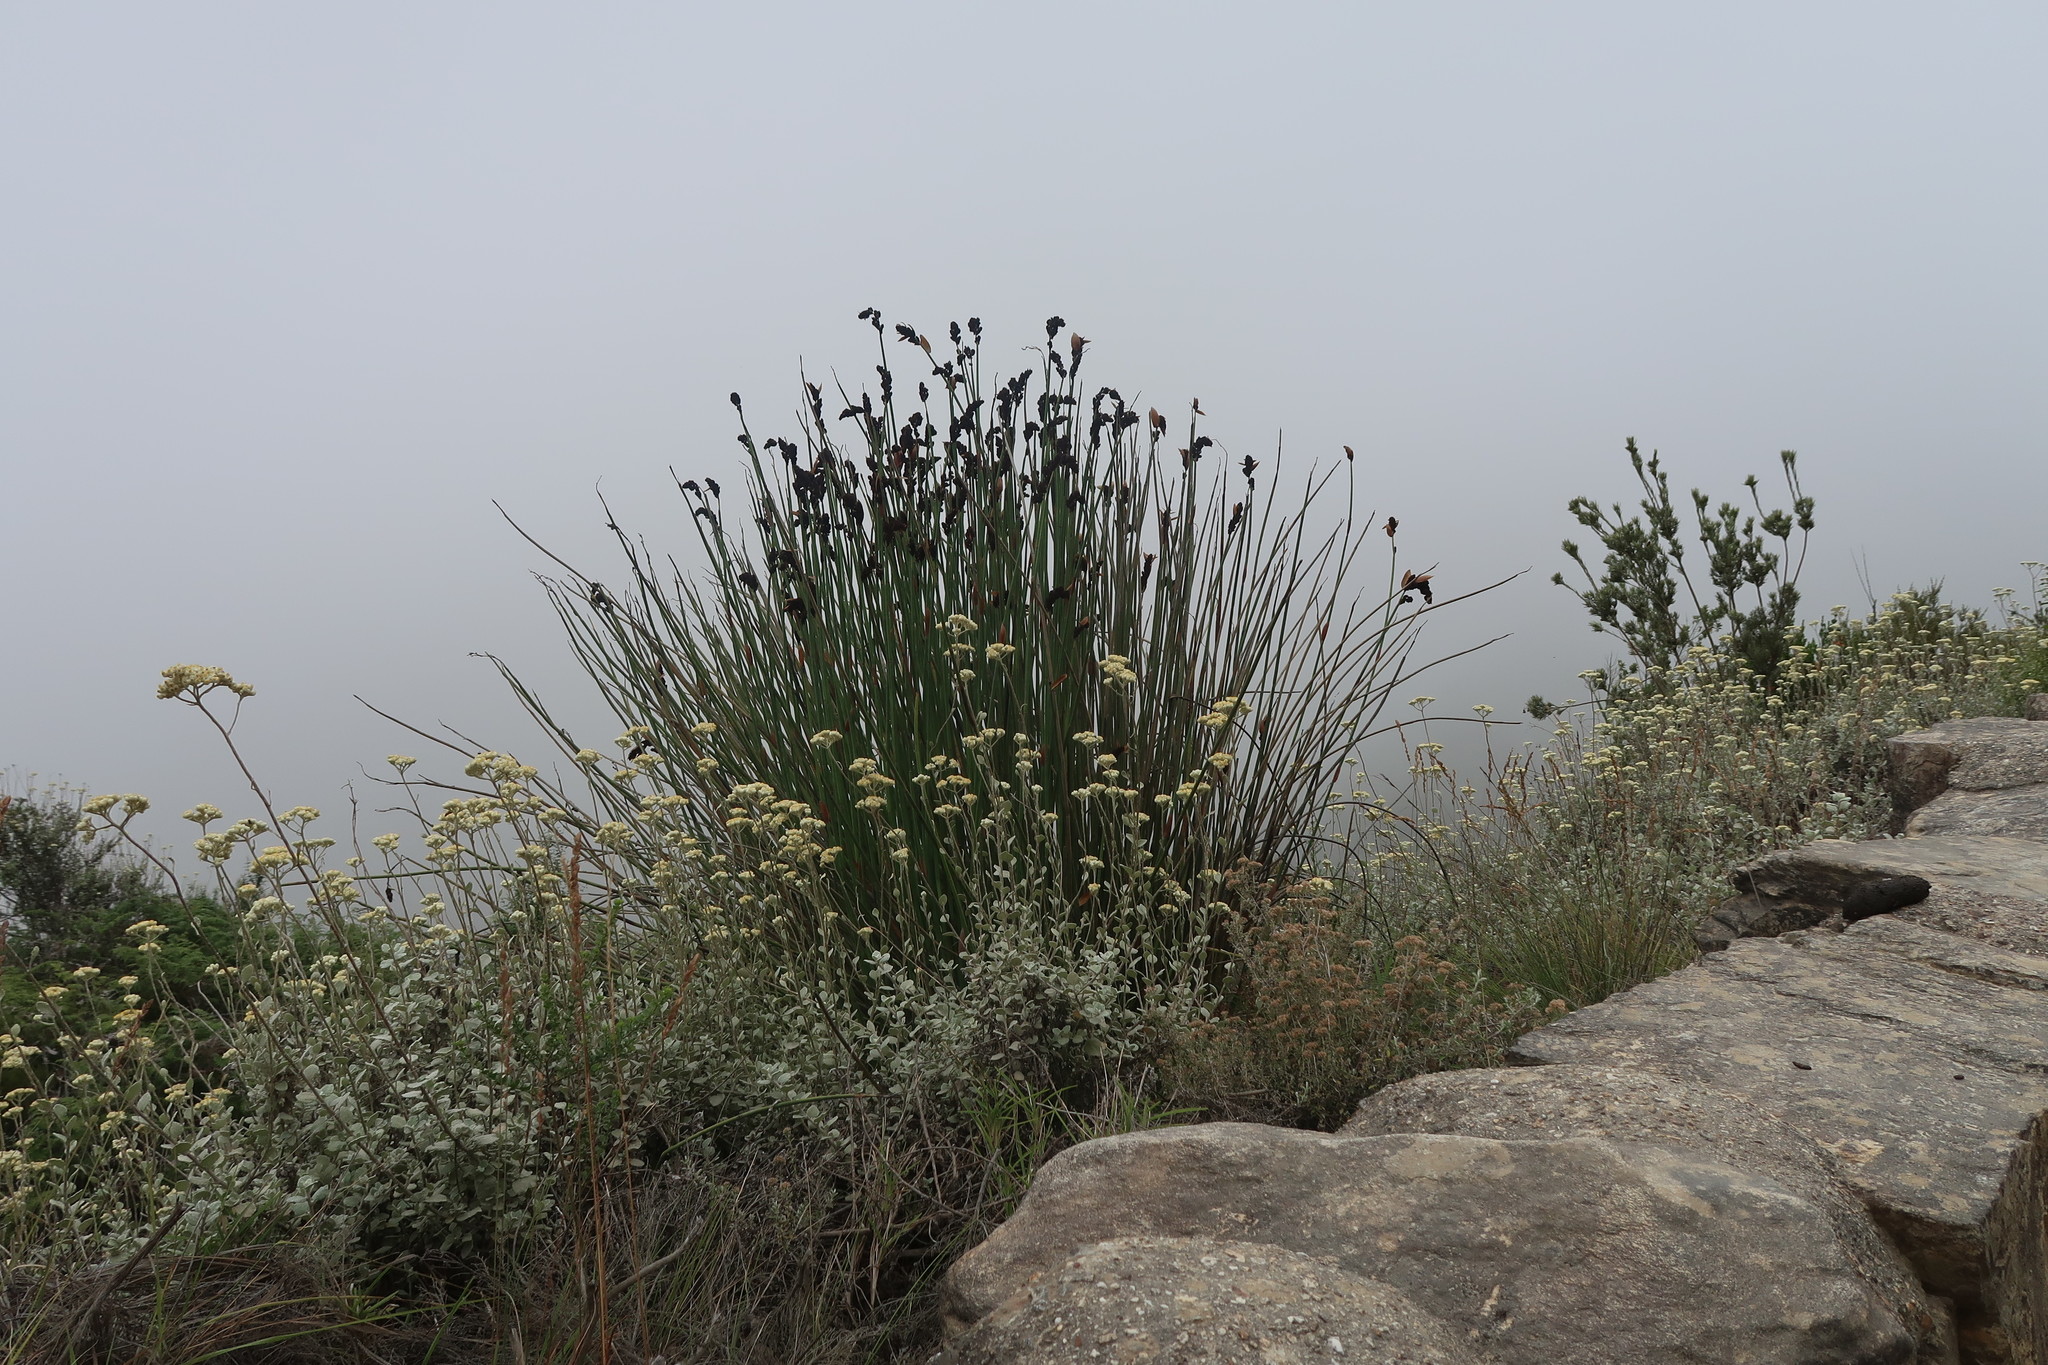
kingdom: Plantae
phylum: Tracheophyta
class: Liliopsida
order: Poales
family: Restionaceae
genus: Elegia
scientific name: Elegia thyrsoidea
